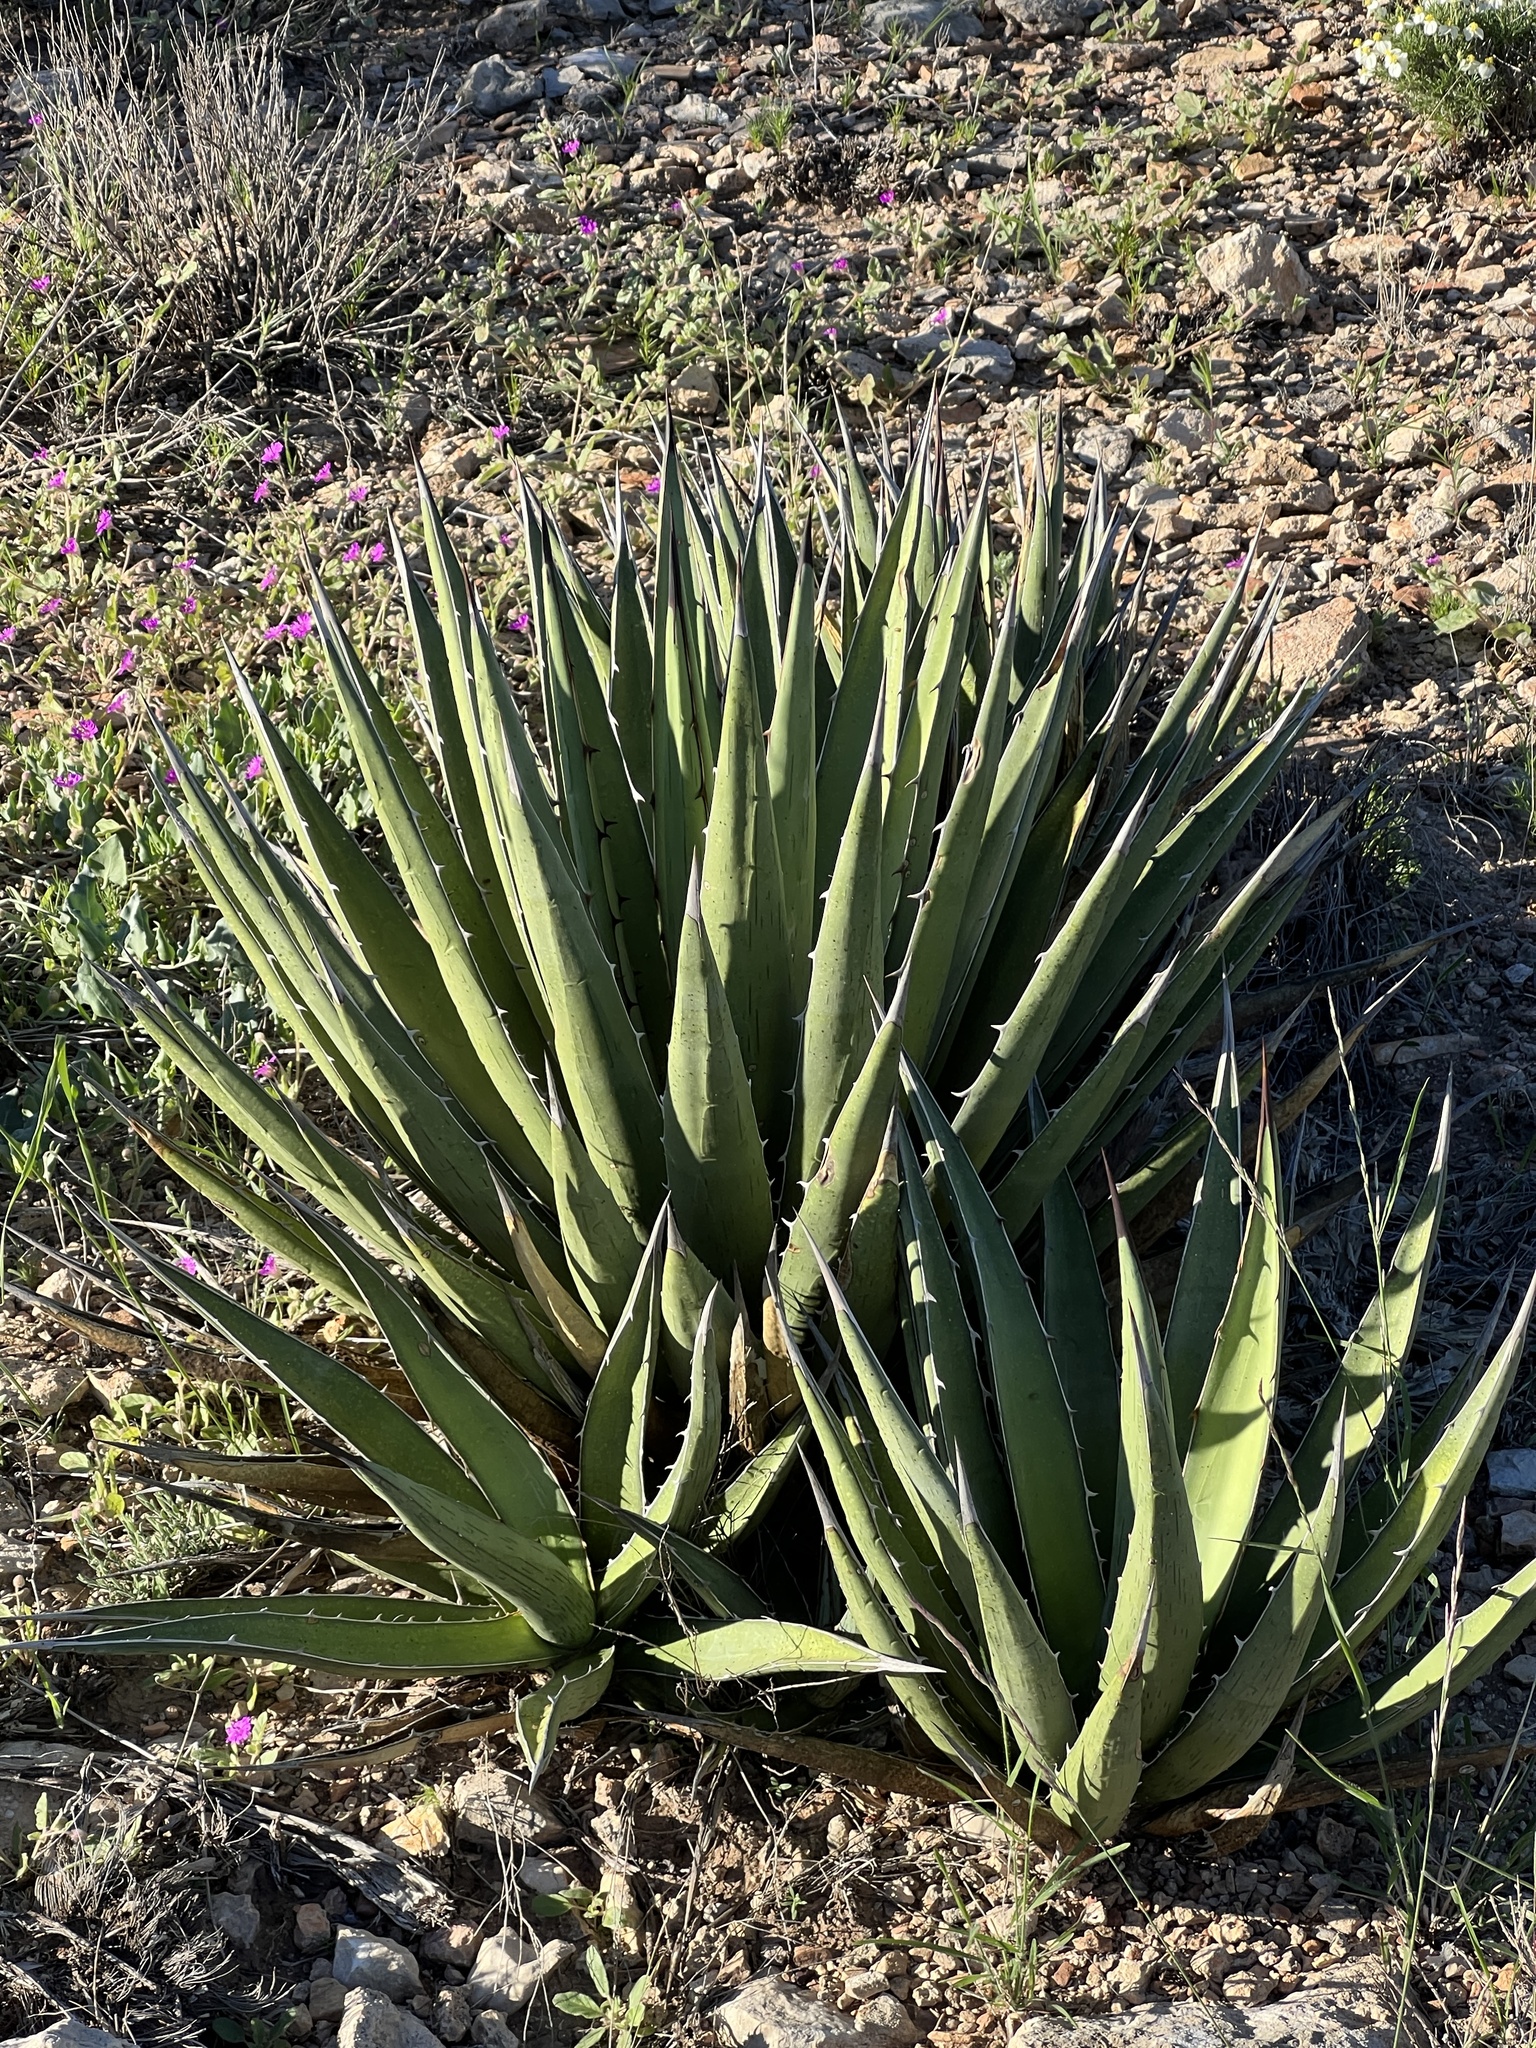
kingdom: Plantae
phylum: Tracheophyta
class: Liliopsida
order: Asparagales
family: Asparagaceae
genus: Agave
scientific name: Agave lechuguilla
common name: Lecheguilla agave
